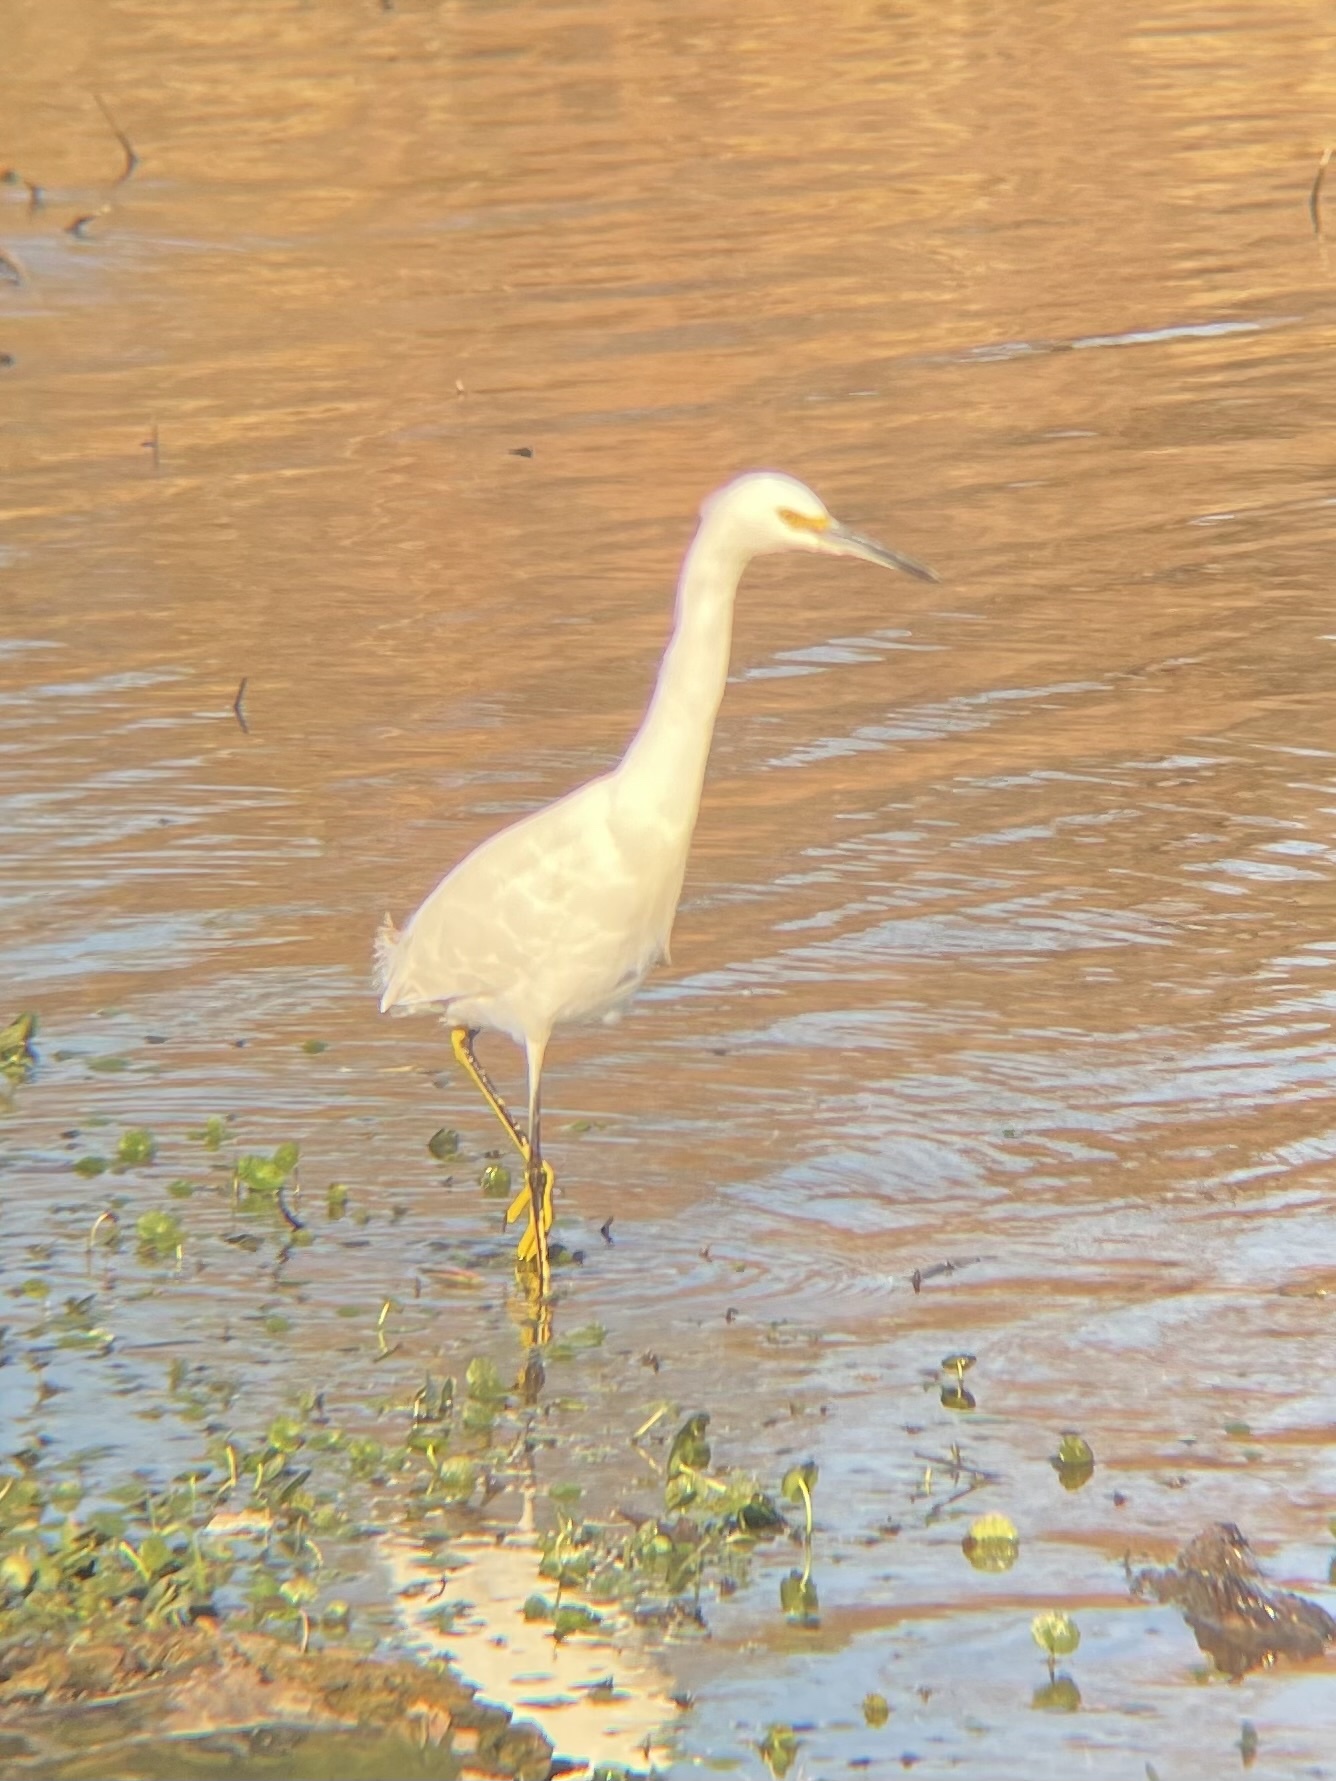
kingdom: Animalia
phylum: Chordata
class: Aves
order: Pelecaniformes
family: Ardeidae
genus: Egretta
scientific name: Egretta thula
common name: Snowy egret
